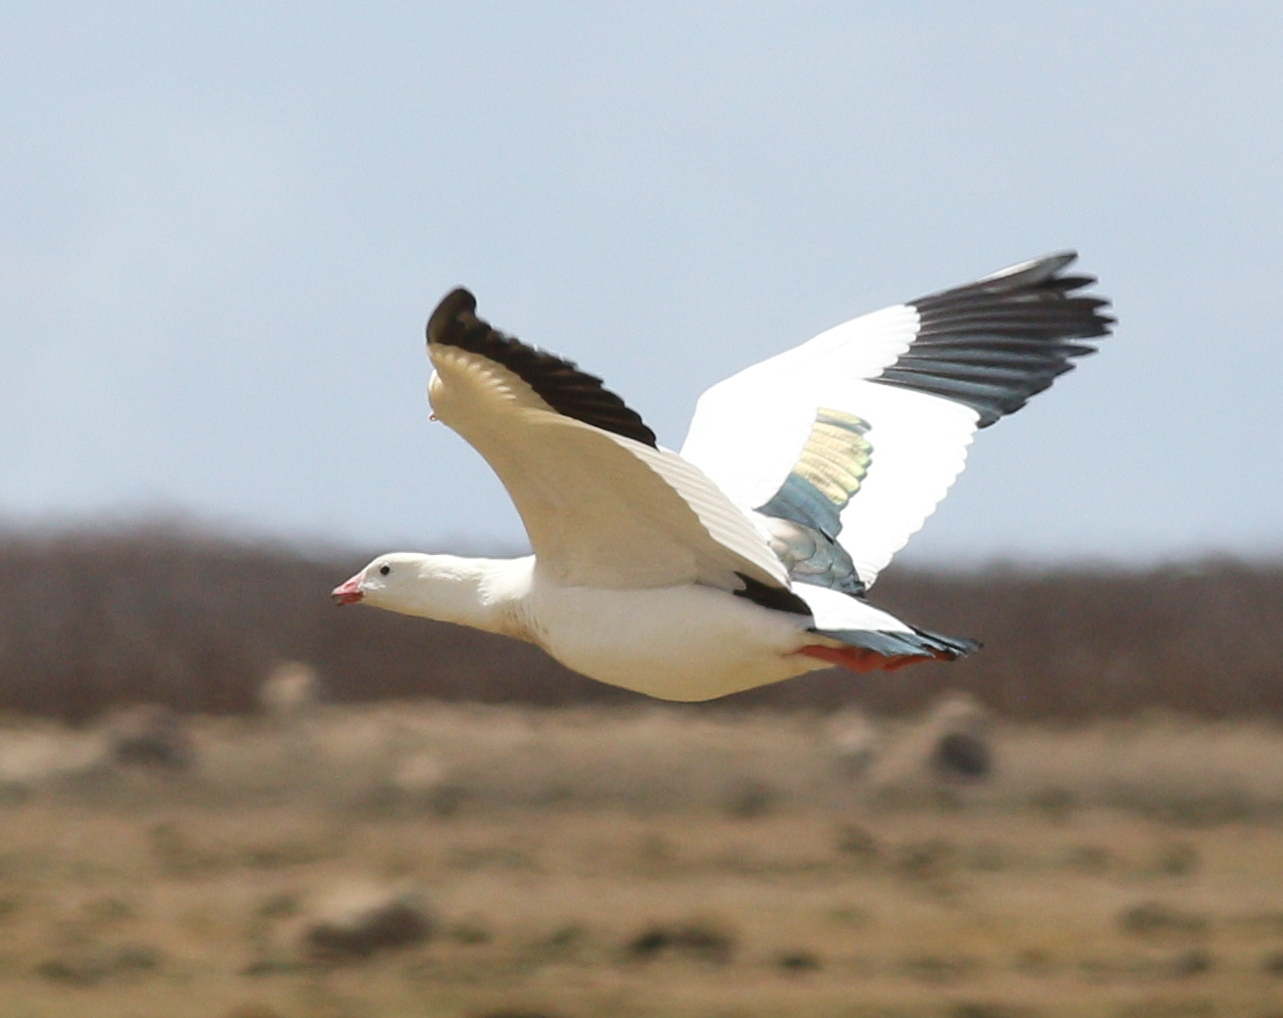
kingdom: Animalia
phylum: Chordata
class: Aves
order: Anseriformes
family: Anatidae
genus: Chloephaga
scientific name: Chloephaga melanoptera
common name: Andean goose
